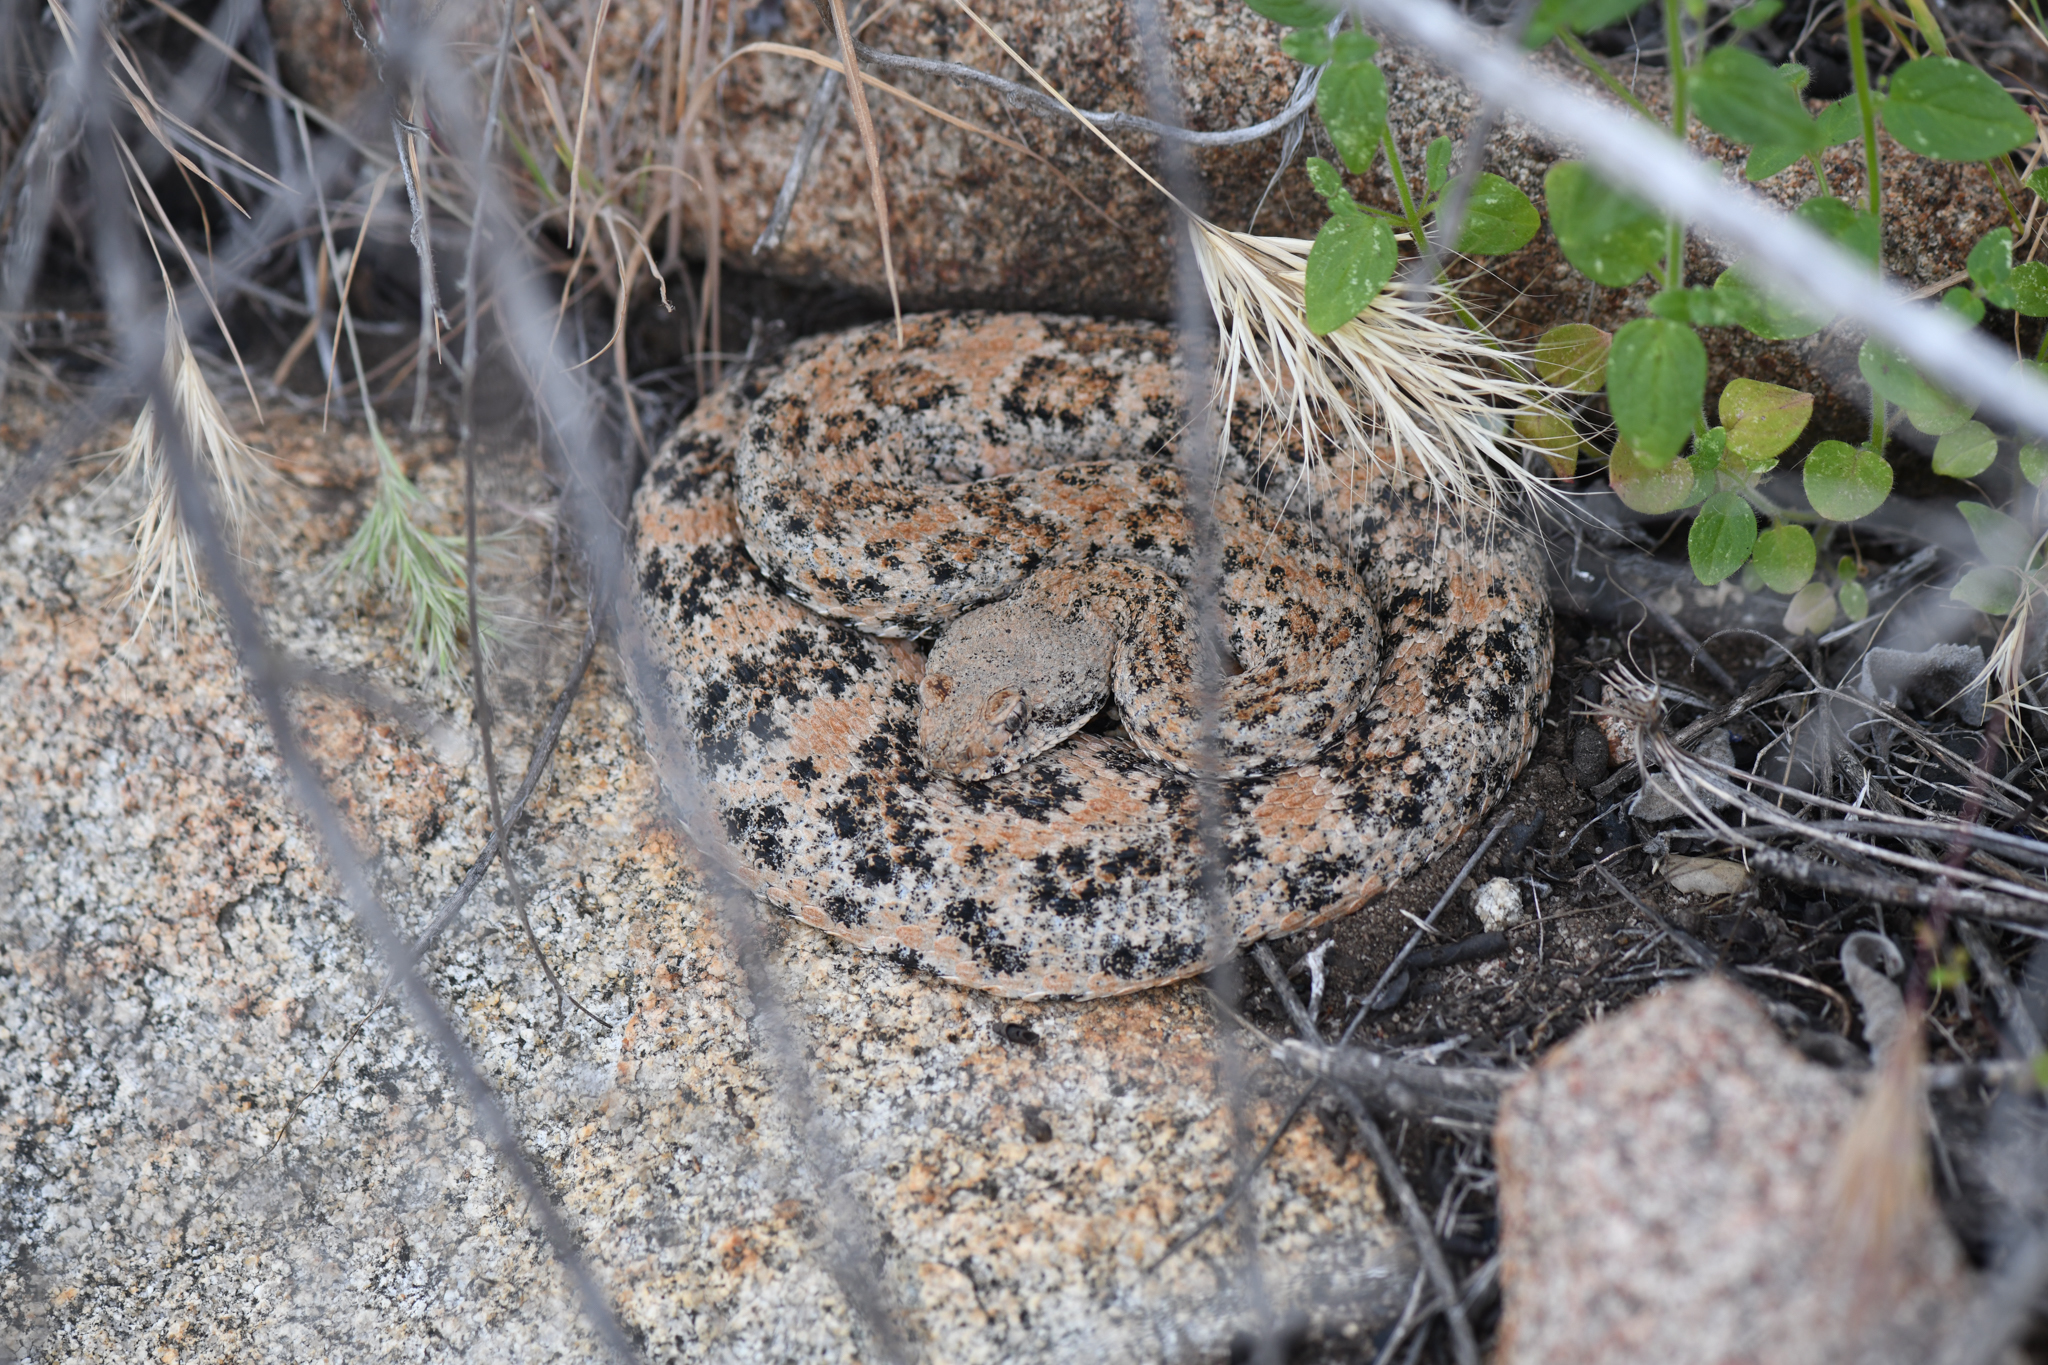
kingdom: Animalia
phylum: Chordata
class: Squamata
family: Viperidae
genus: Crotalus
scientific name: Crotalus pyrrhus
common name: Southwestern speckled rattlesnake
